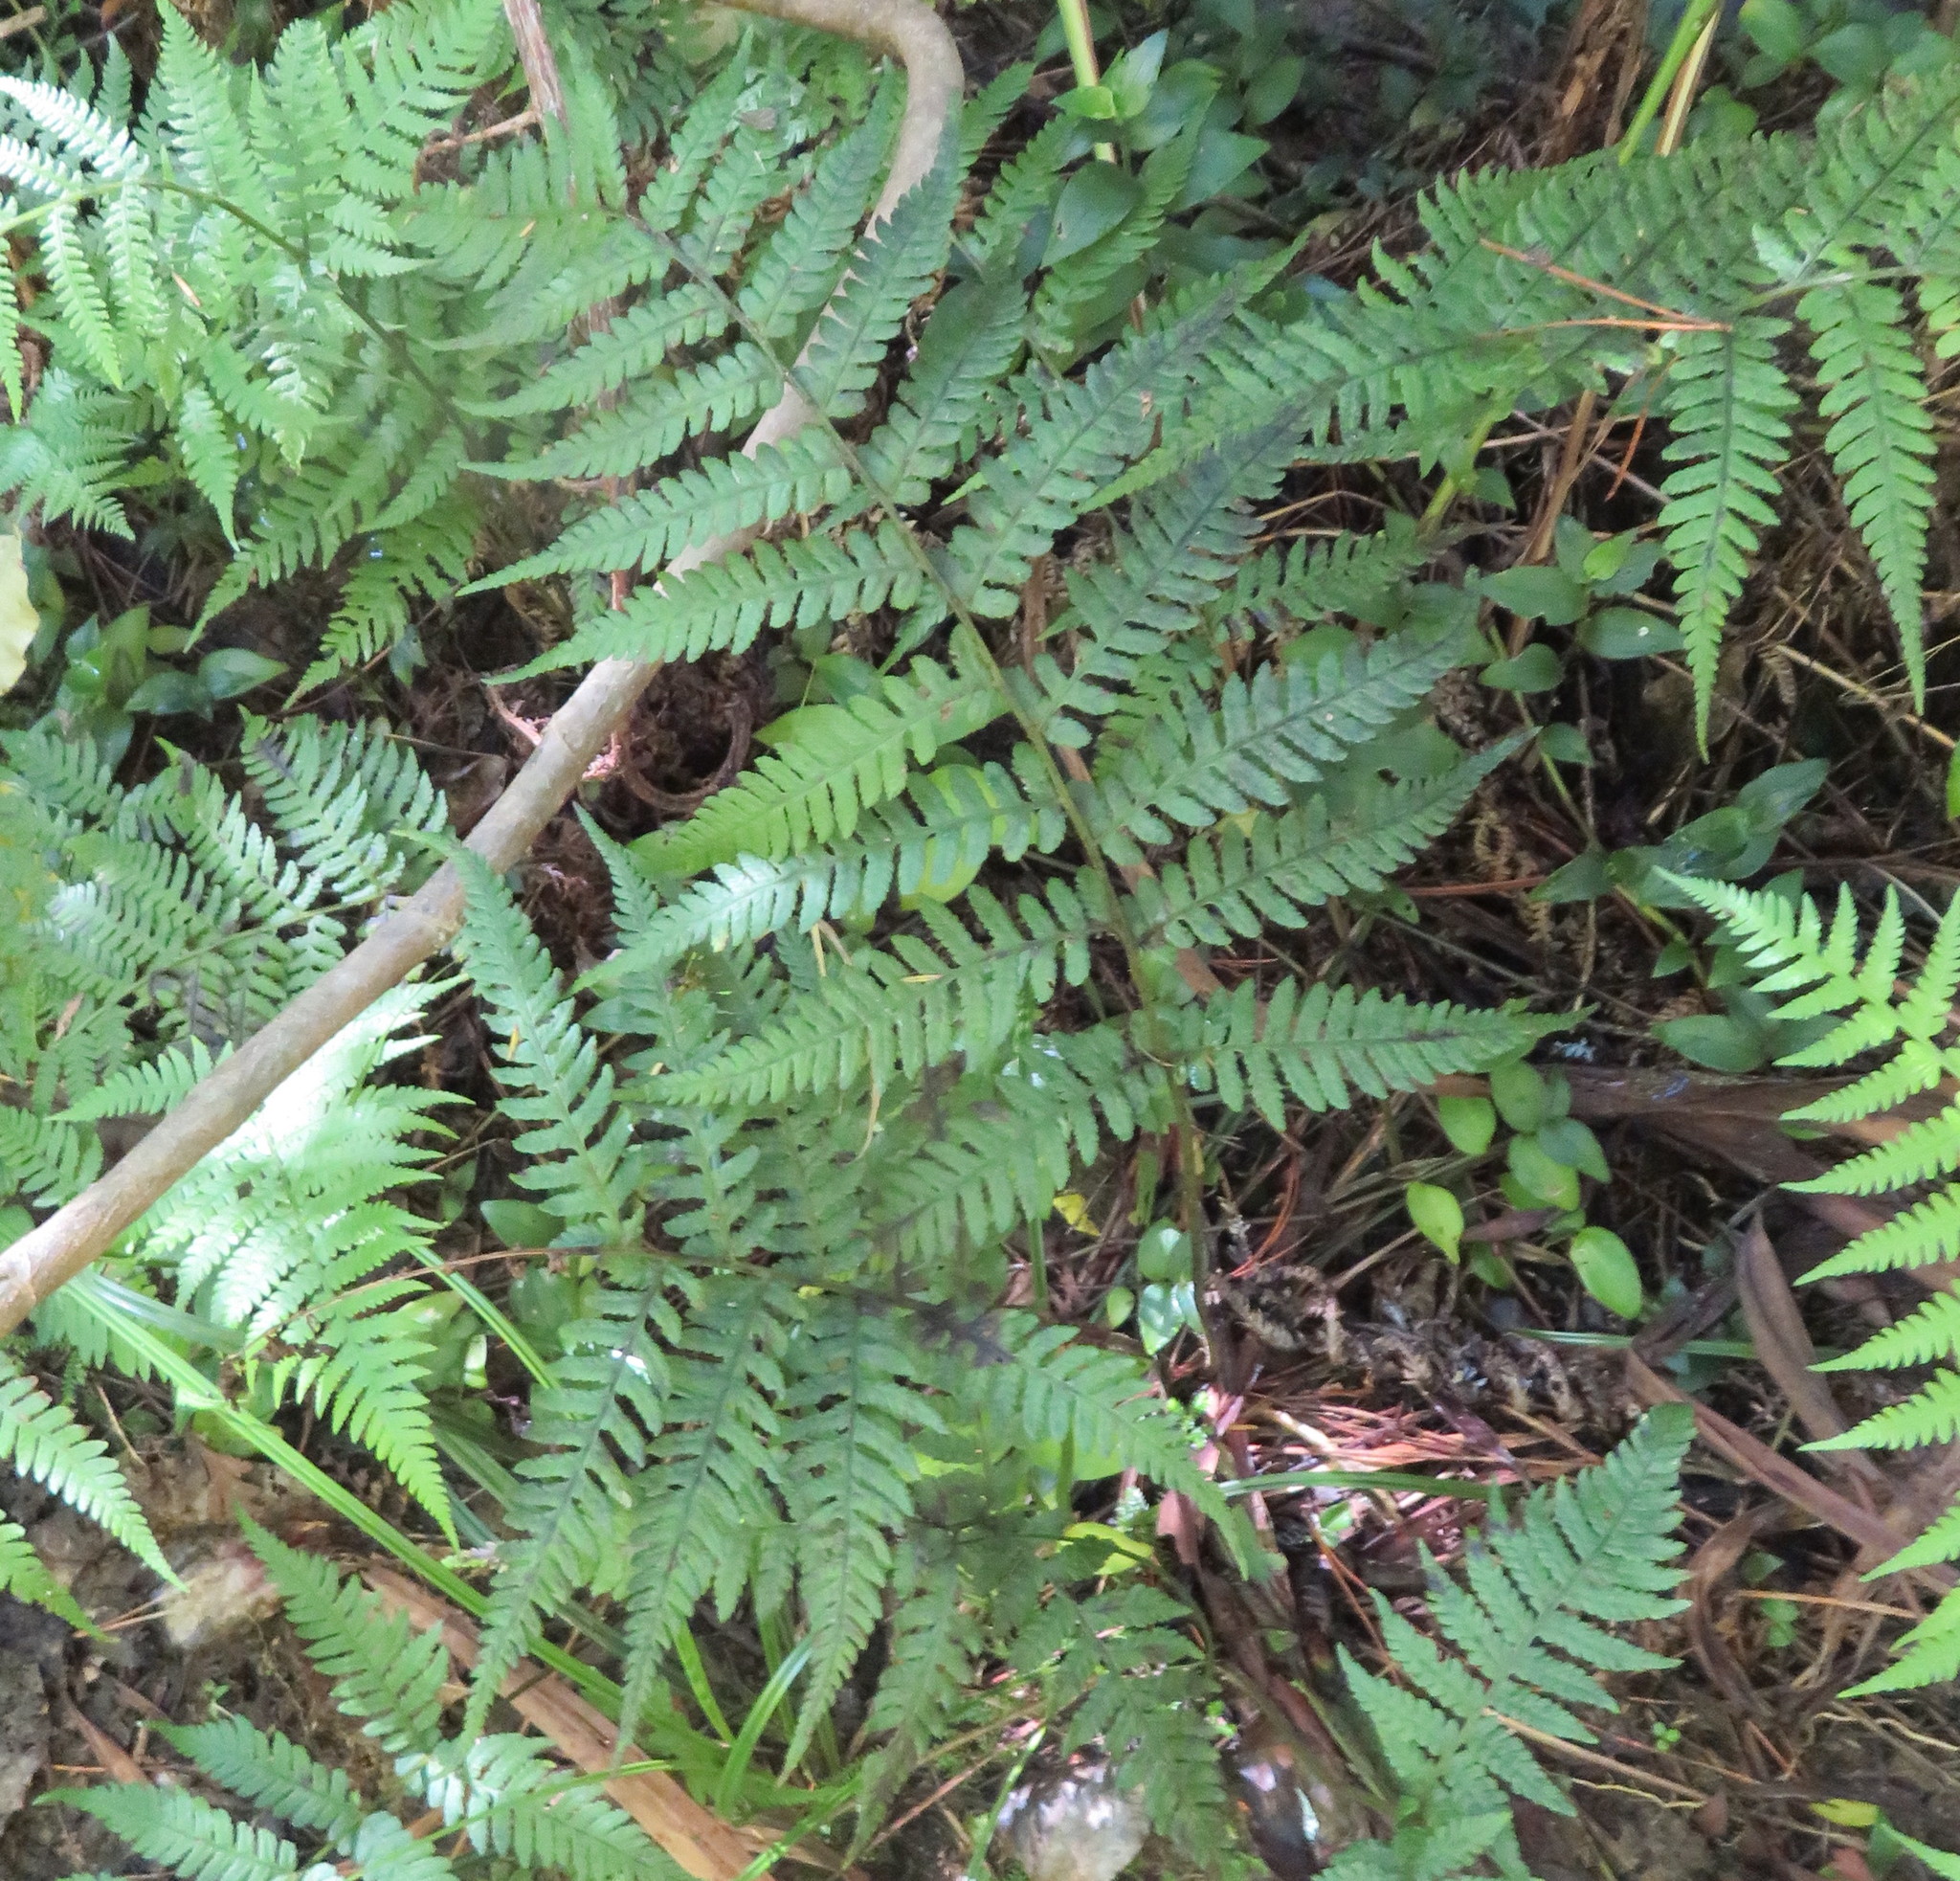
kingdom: Plantae
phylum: Tracheophyta
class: Polypodiopsida
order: Polypodiales
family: Athyriaceae
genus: Deparia
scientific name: Deparia petersenii
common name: Japanese false spleenwort
